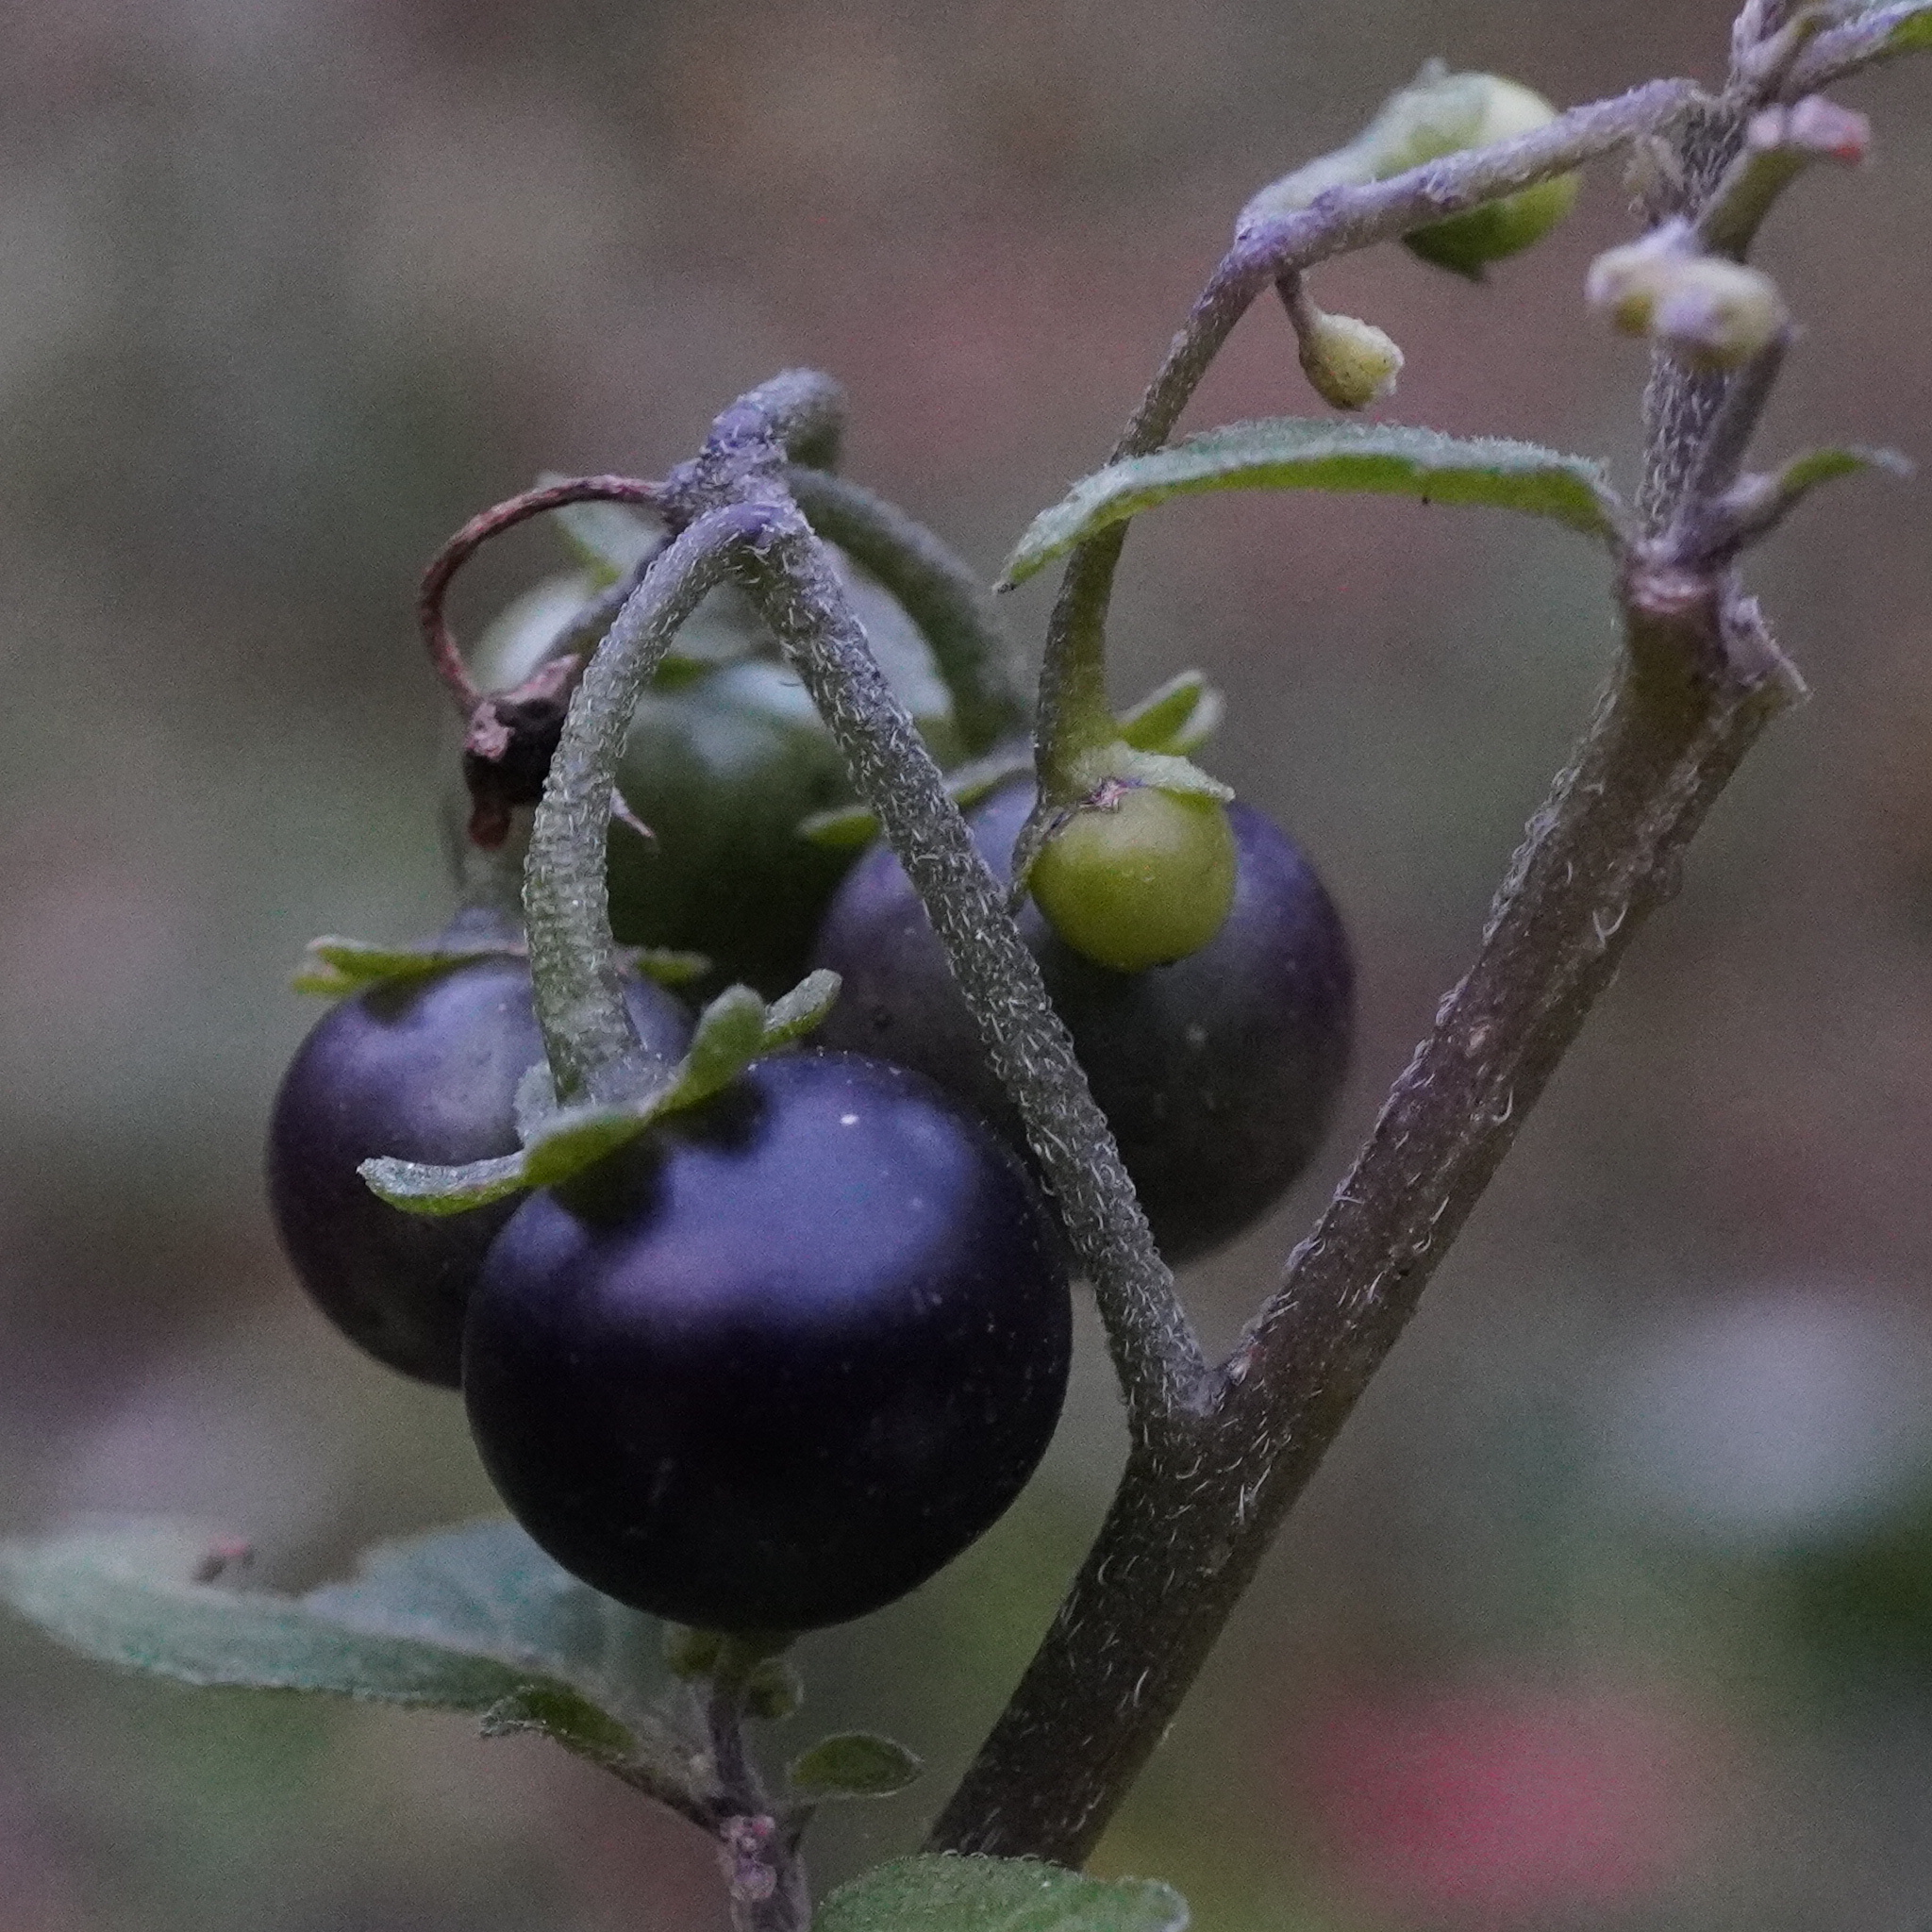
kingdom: Plantae
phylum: Tracheophyta
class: Magnoliopsida
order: Solanales
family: Solanaceae
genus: Solanum
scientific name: Solanum nigrum
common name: Black nightshade
